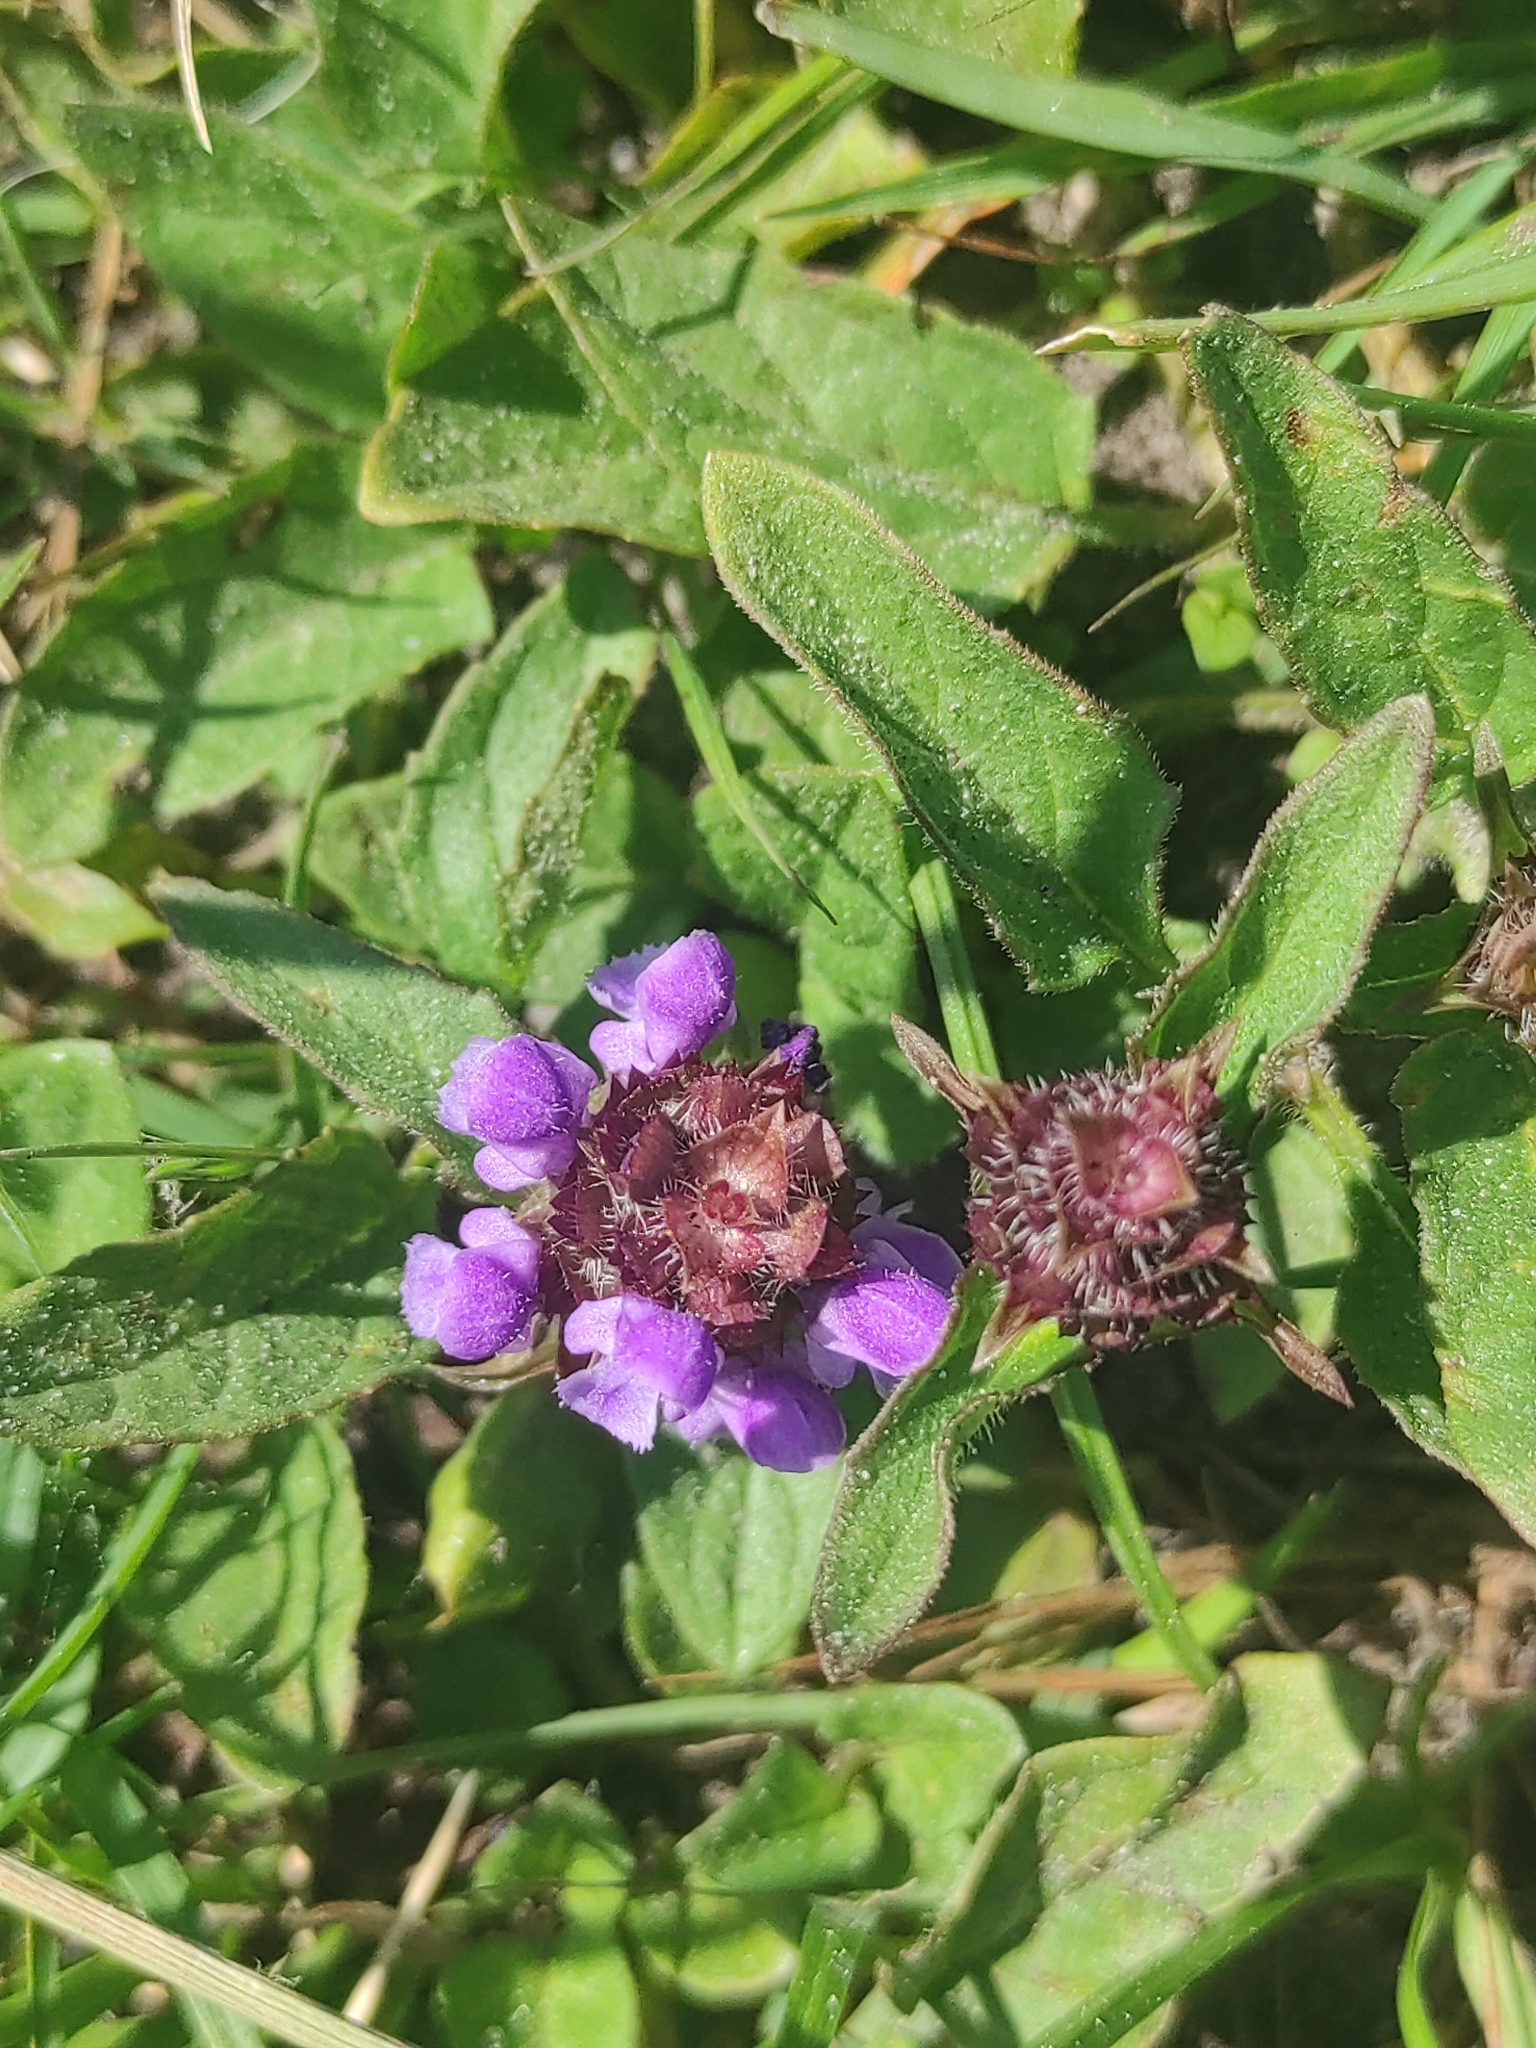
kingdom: Plantae
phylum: Tracheophyta
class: Magnoliopsida
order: Lamiales
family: Lamiaceae
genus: Prunella
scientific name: Prunella vulgaris
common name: Heal-all
